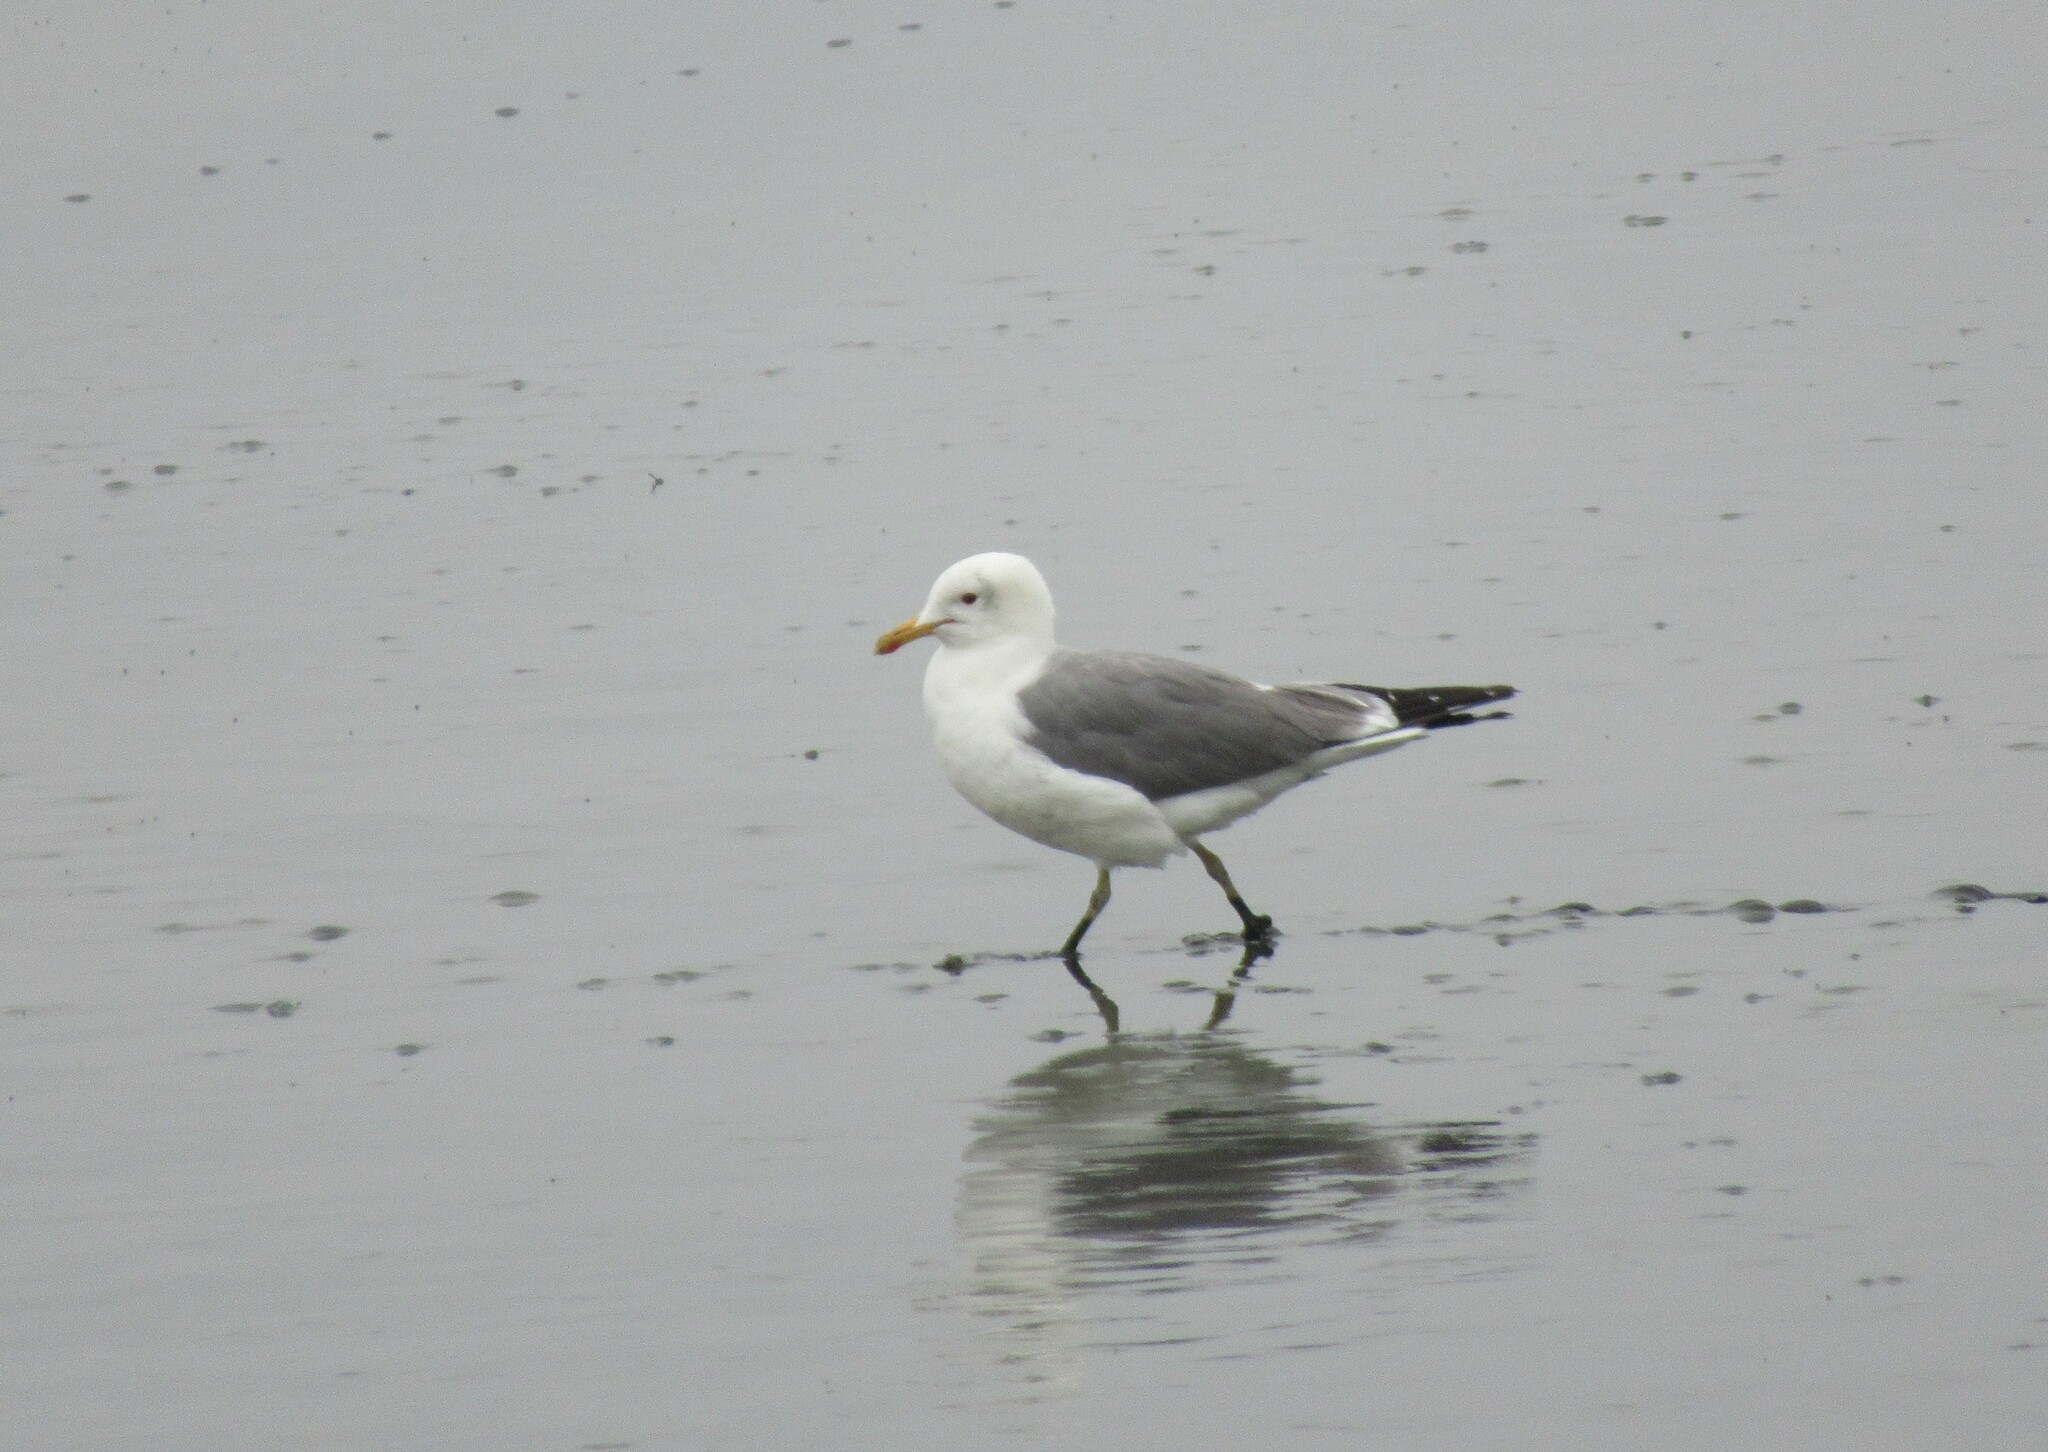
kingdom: Animalia
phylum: Chordata
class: Aves
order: Charadriiformes
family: Laridae
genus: Larus
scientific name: Larus californicus
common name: California gull
